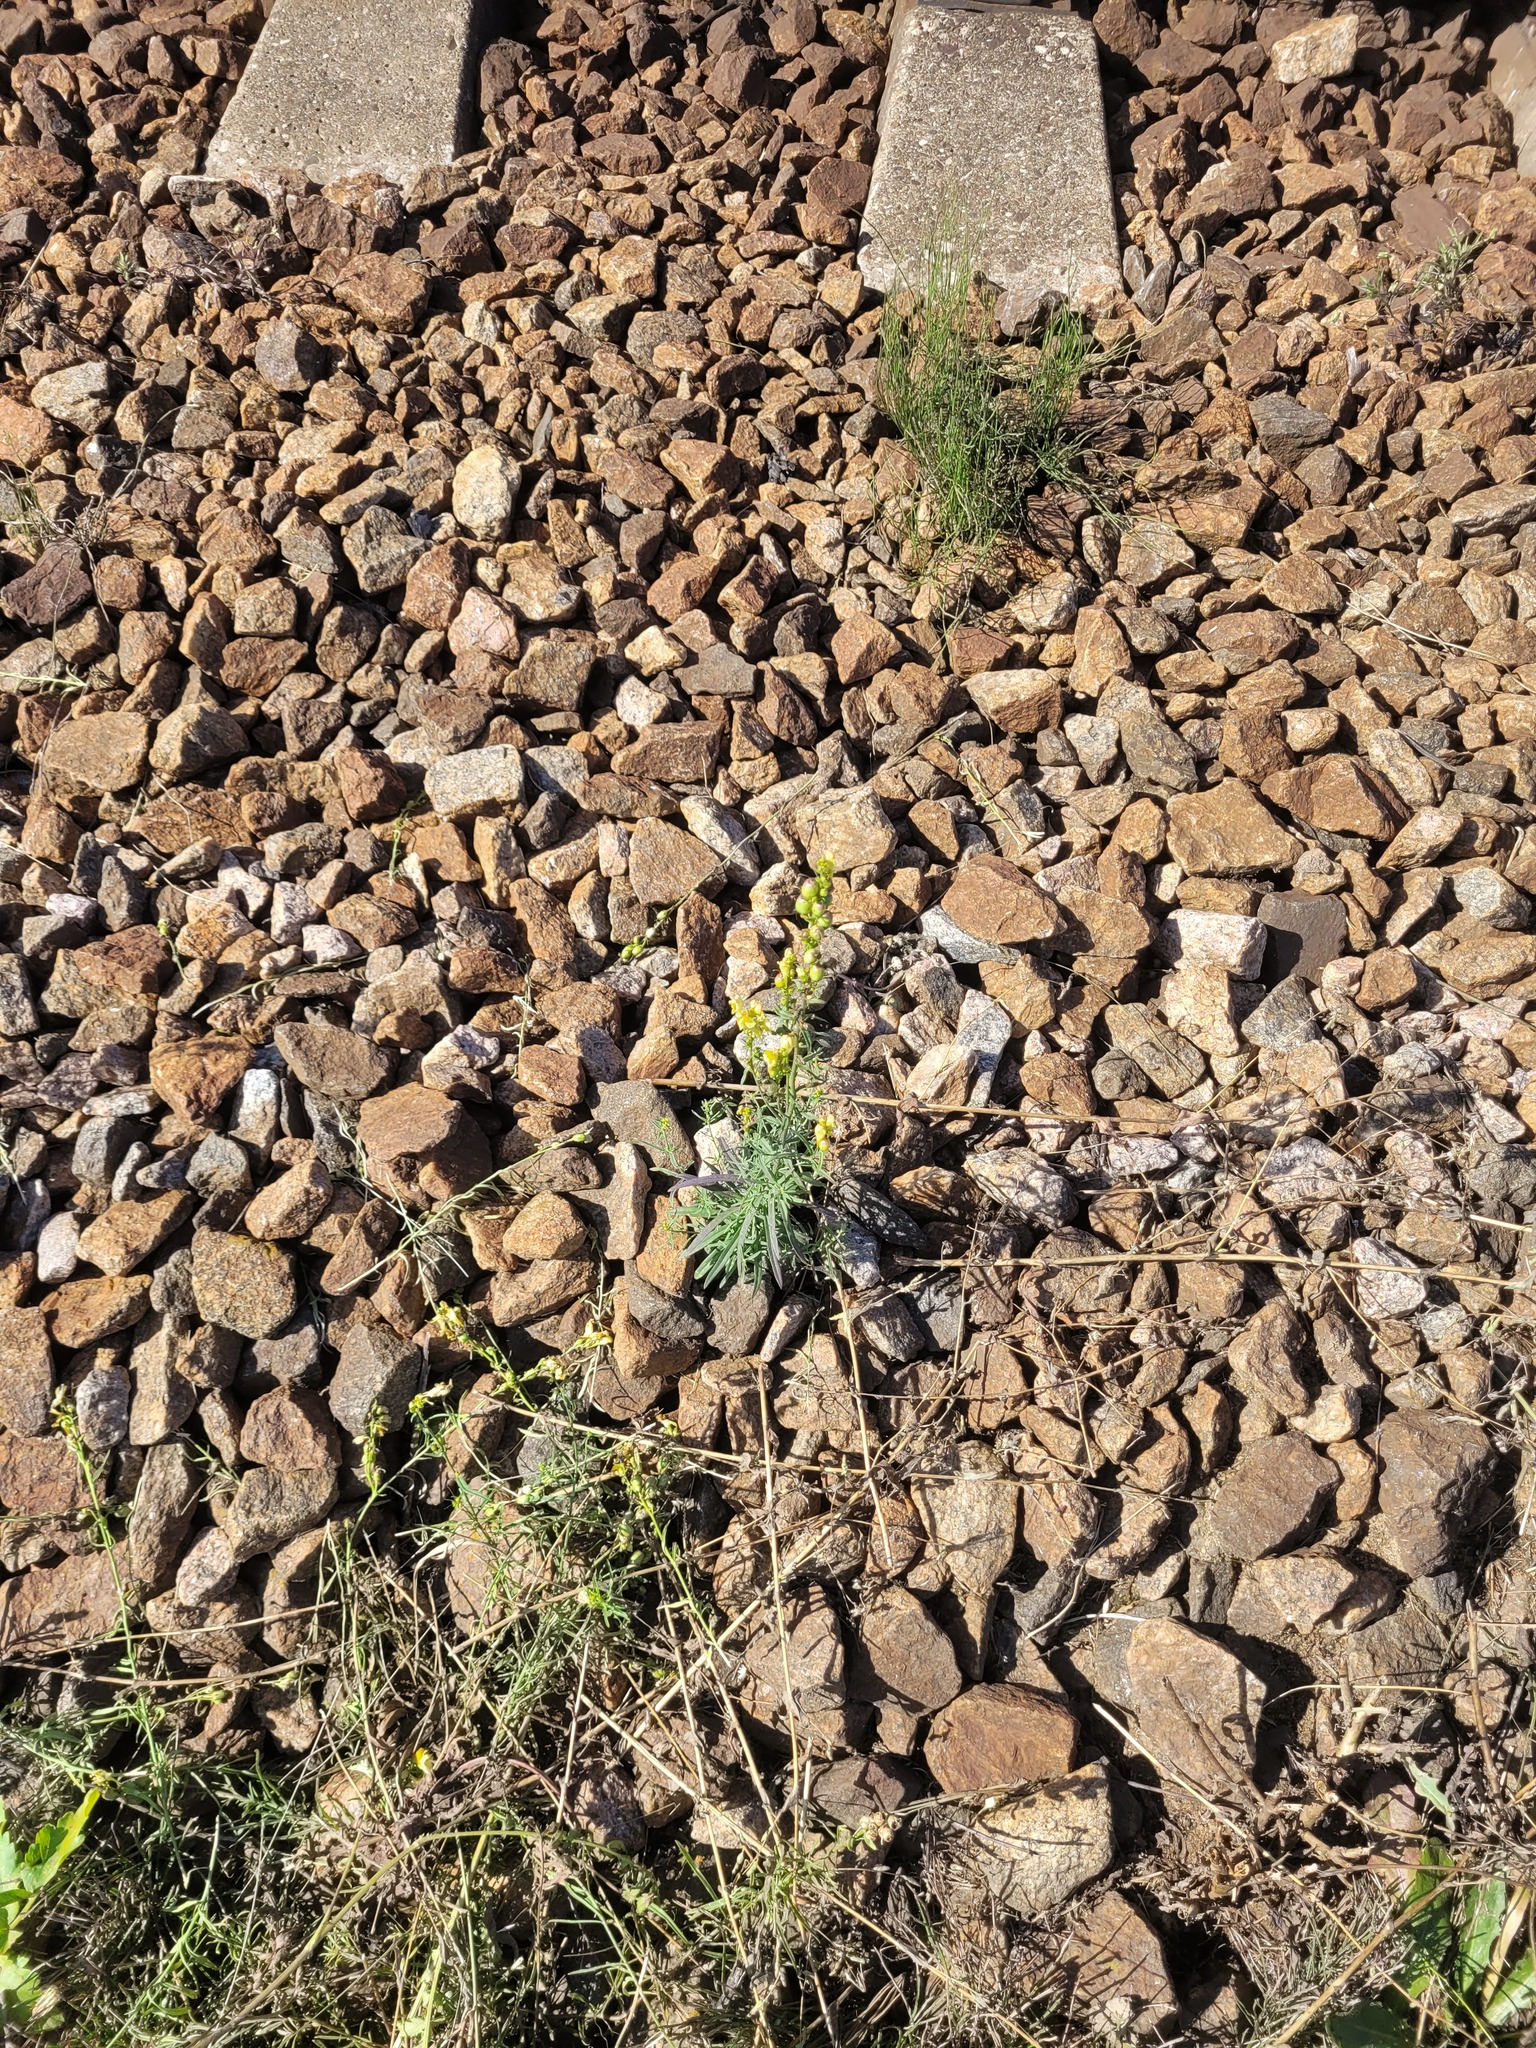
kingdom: Plantae
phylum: Tracheophyta
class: Magnoliopsida
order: Lamiales
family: Plantaginaceae
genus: Linaria
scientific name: Linaria vulgaris
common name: Butter and eggs
